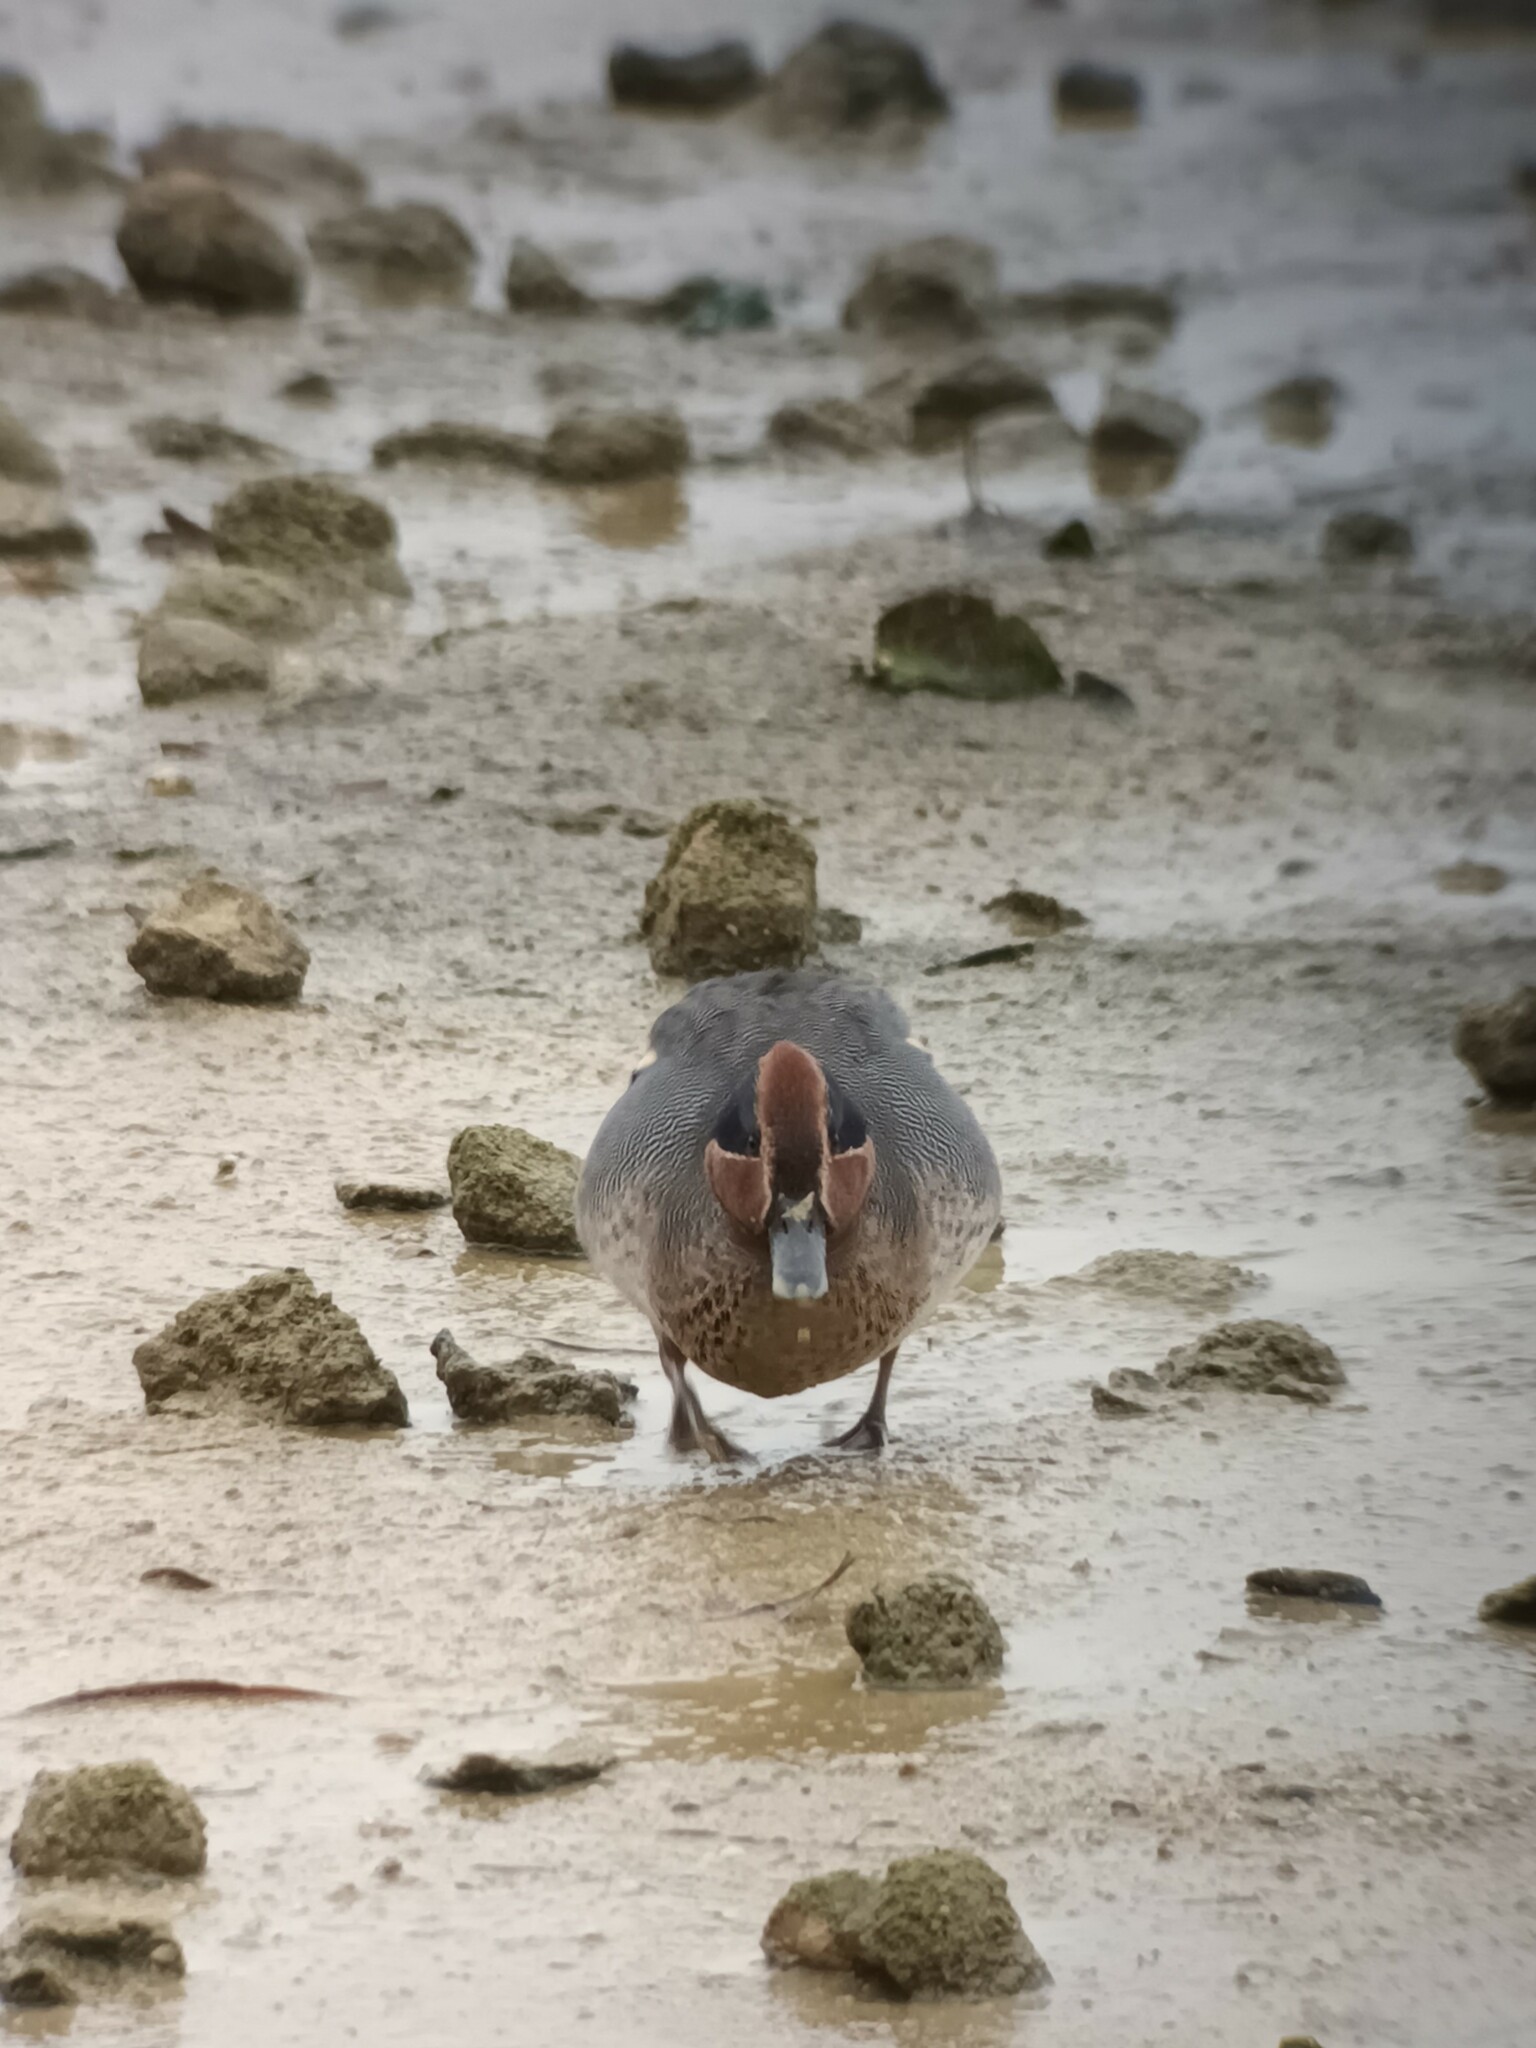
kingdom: Animalia
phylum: Chordata
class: Aves
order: Anseriformes
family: Anatidae
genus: Anas
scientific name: Anas crecca
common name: Eurasian teal
